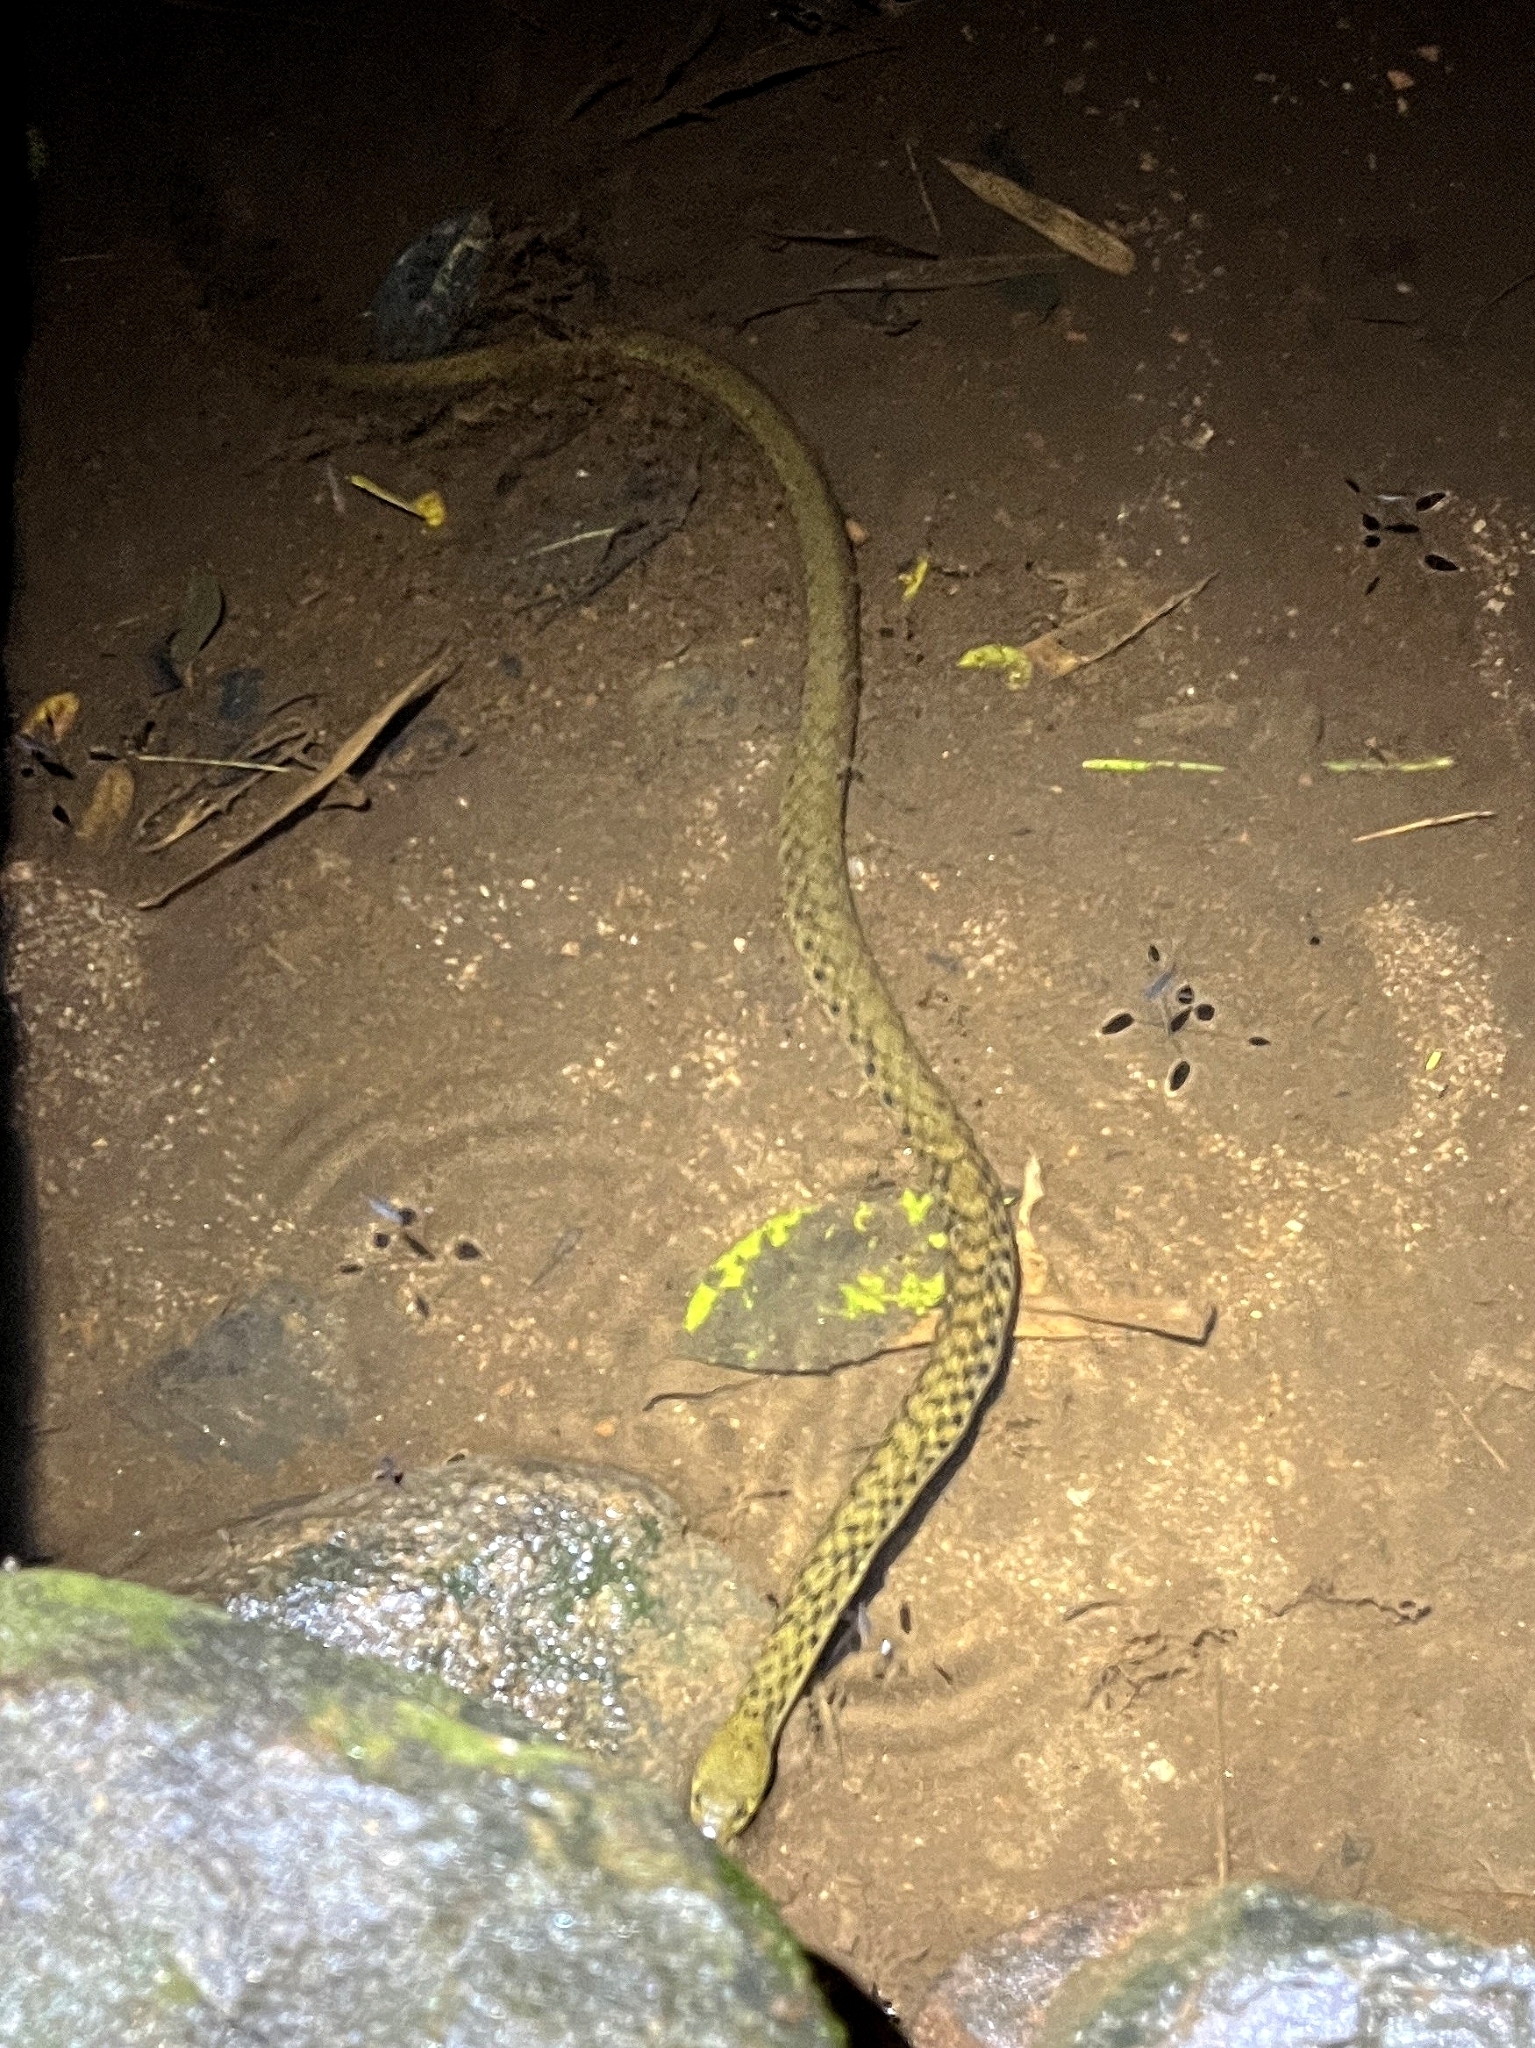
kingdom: Animalia
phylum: Chordata
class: Squamata
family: Colubridae
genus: Fowlea
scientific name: Fowlea piscator
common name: Asiatic water snake
